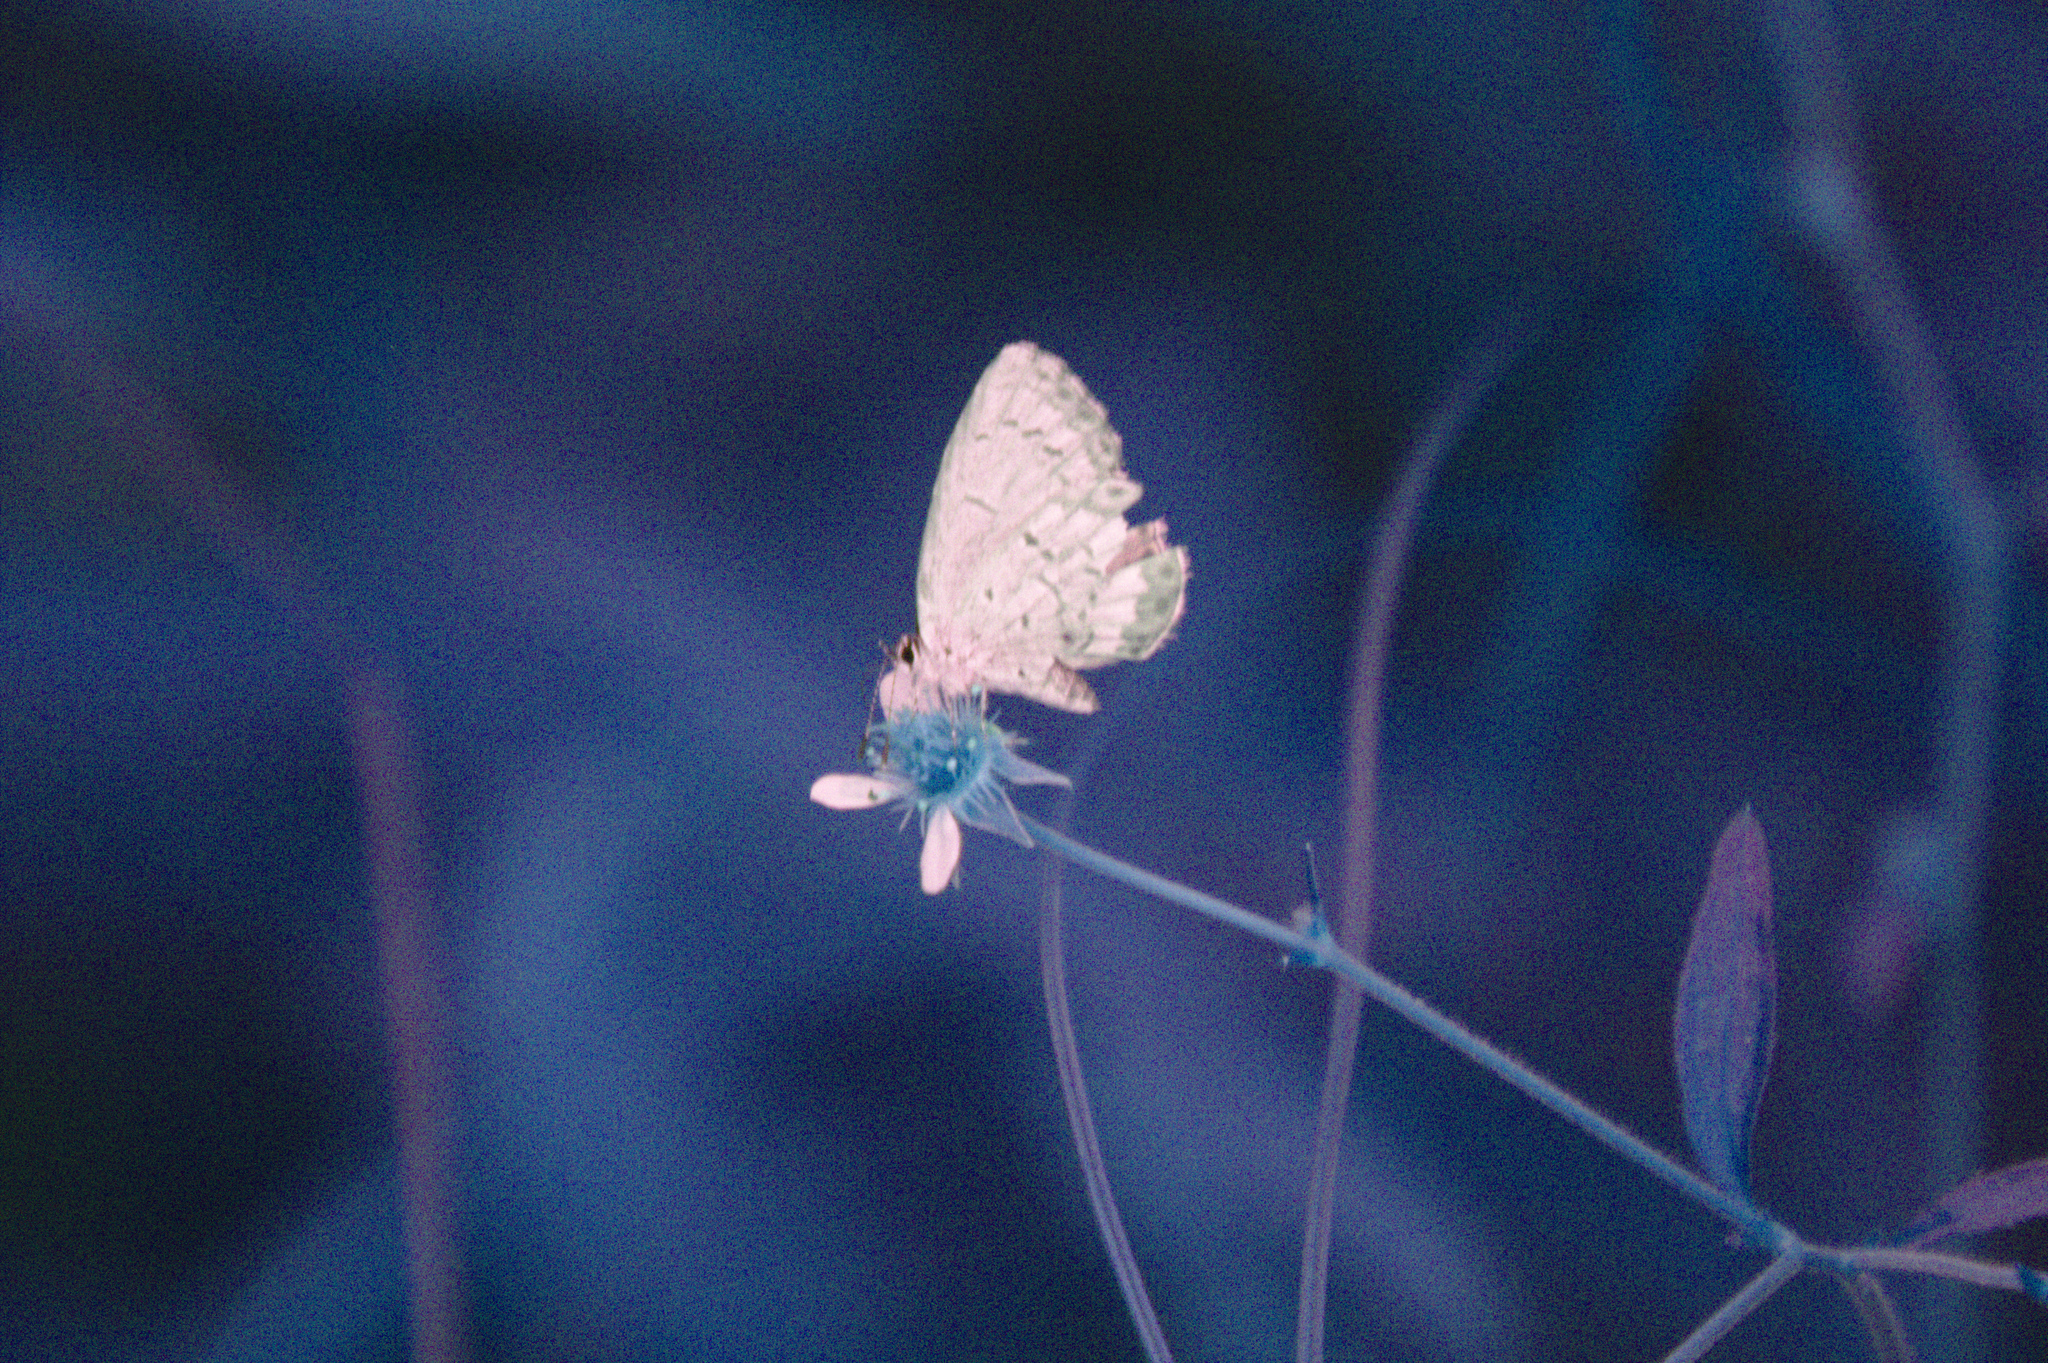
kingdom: Animalia
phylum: Arthropoda
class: Insecta
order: Lepidoptera
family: Lycaenidae
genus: Celastrina
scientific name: Celastrina lucia
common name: Lucia azure
